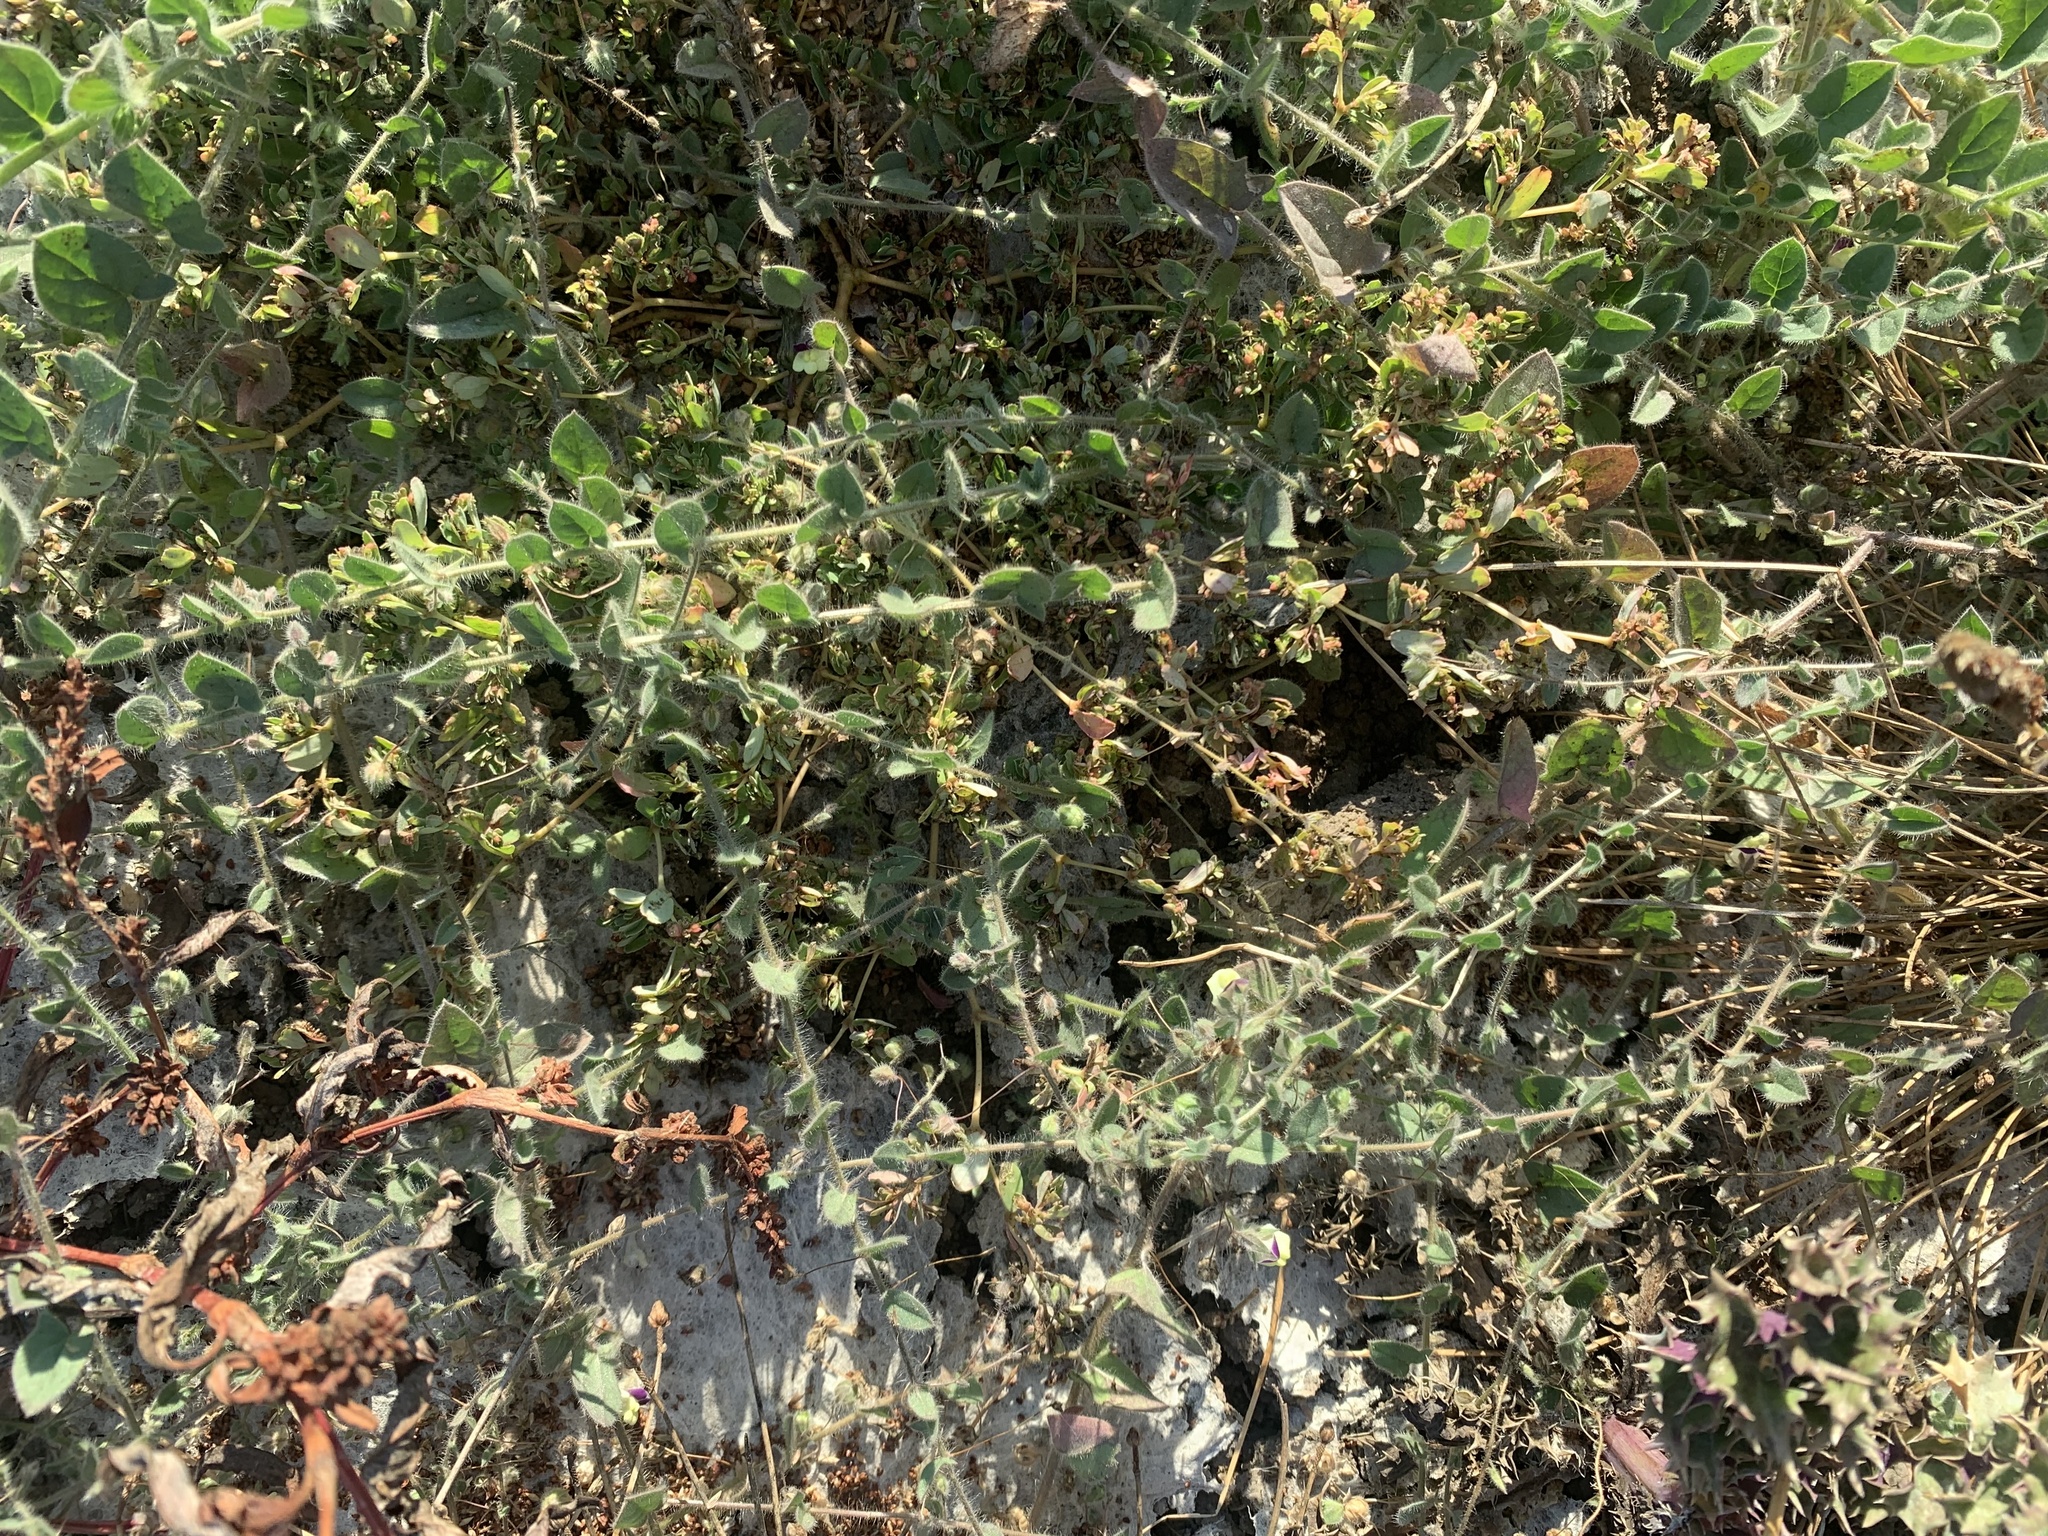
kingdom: Plantae
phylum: Tracheophyta
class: Magnoliopsida
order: Lamiales
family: Plantaginaceae
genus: Kickxia
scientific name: Kickxia elatine
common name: Sharp-leaved fluellen
